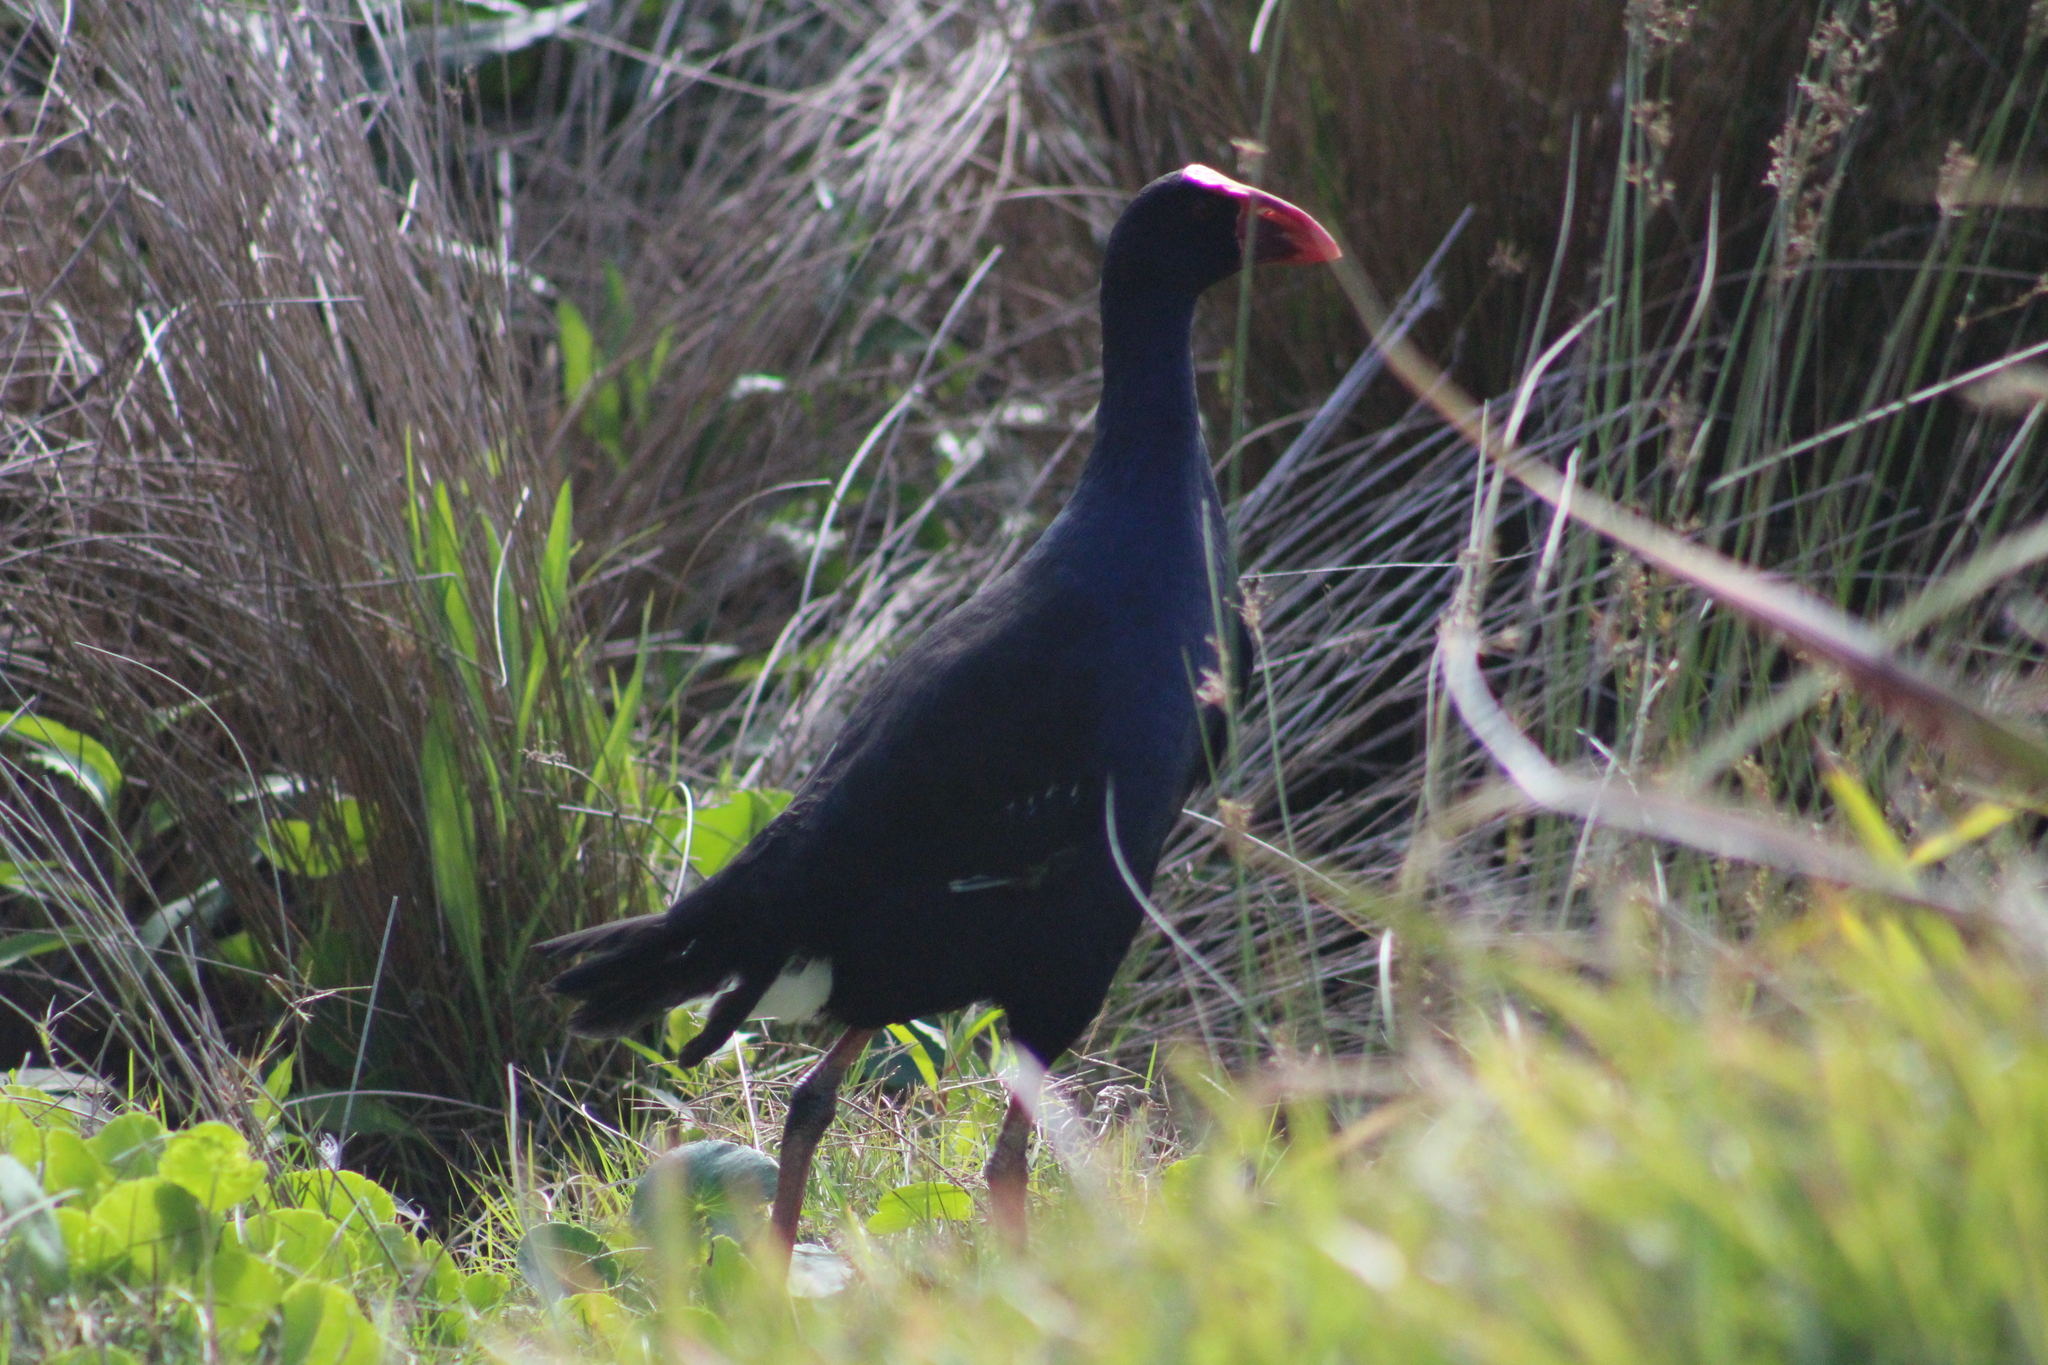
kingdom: Animalia
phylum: Chordata
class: Aves
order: Gruiformes
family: Rallidae
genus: Porphyrio
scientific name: Porphyrio melanotus
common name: Australasian swamphen
